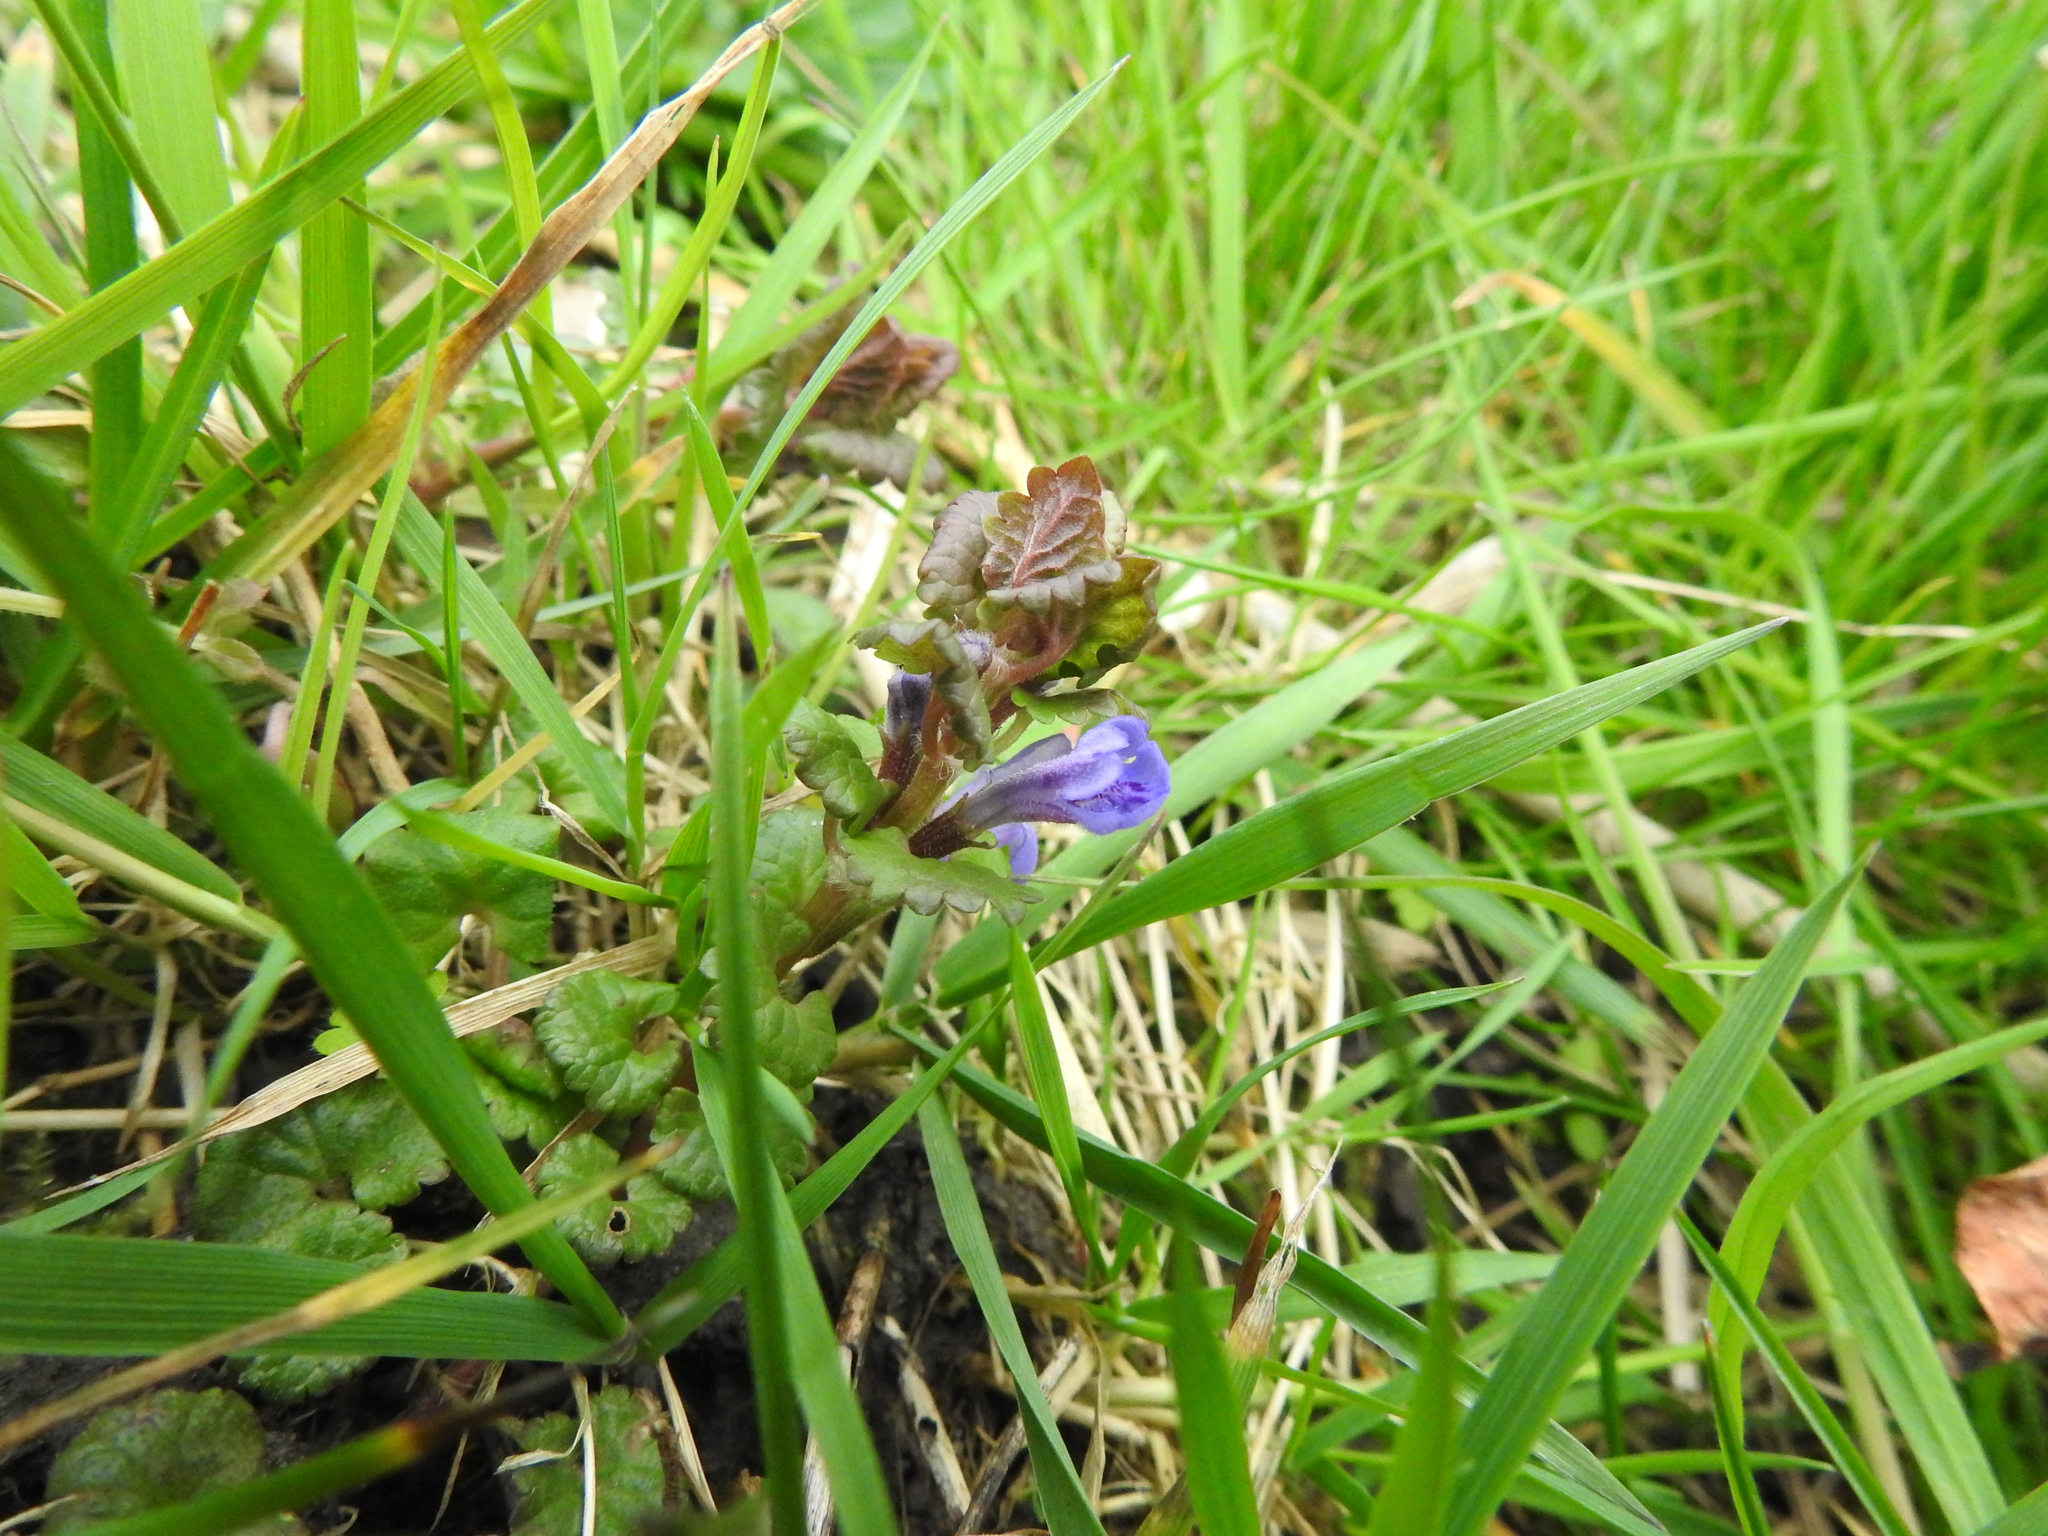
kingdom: Plantae
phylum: Tracheophyta
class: Magnoliopsida
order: Lamiales
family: Lamiaceae
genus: Glechoma
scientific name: Glechoma hederacea
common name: Ground ivy
